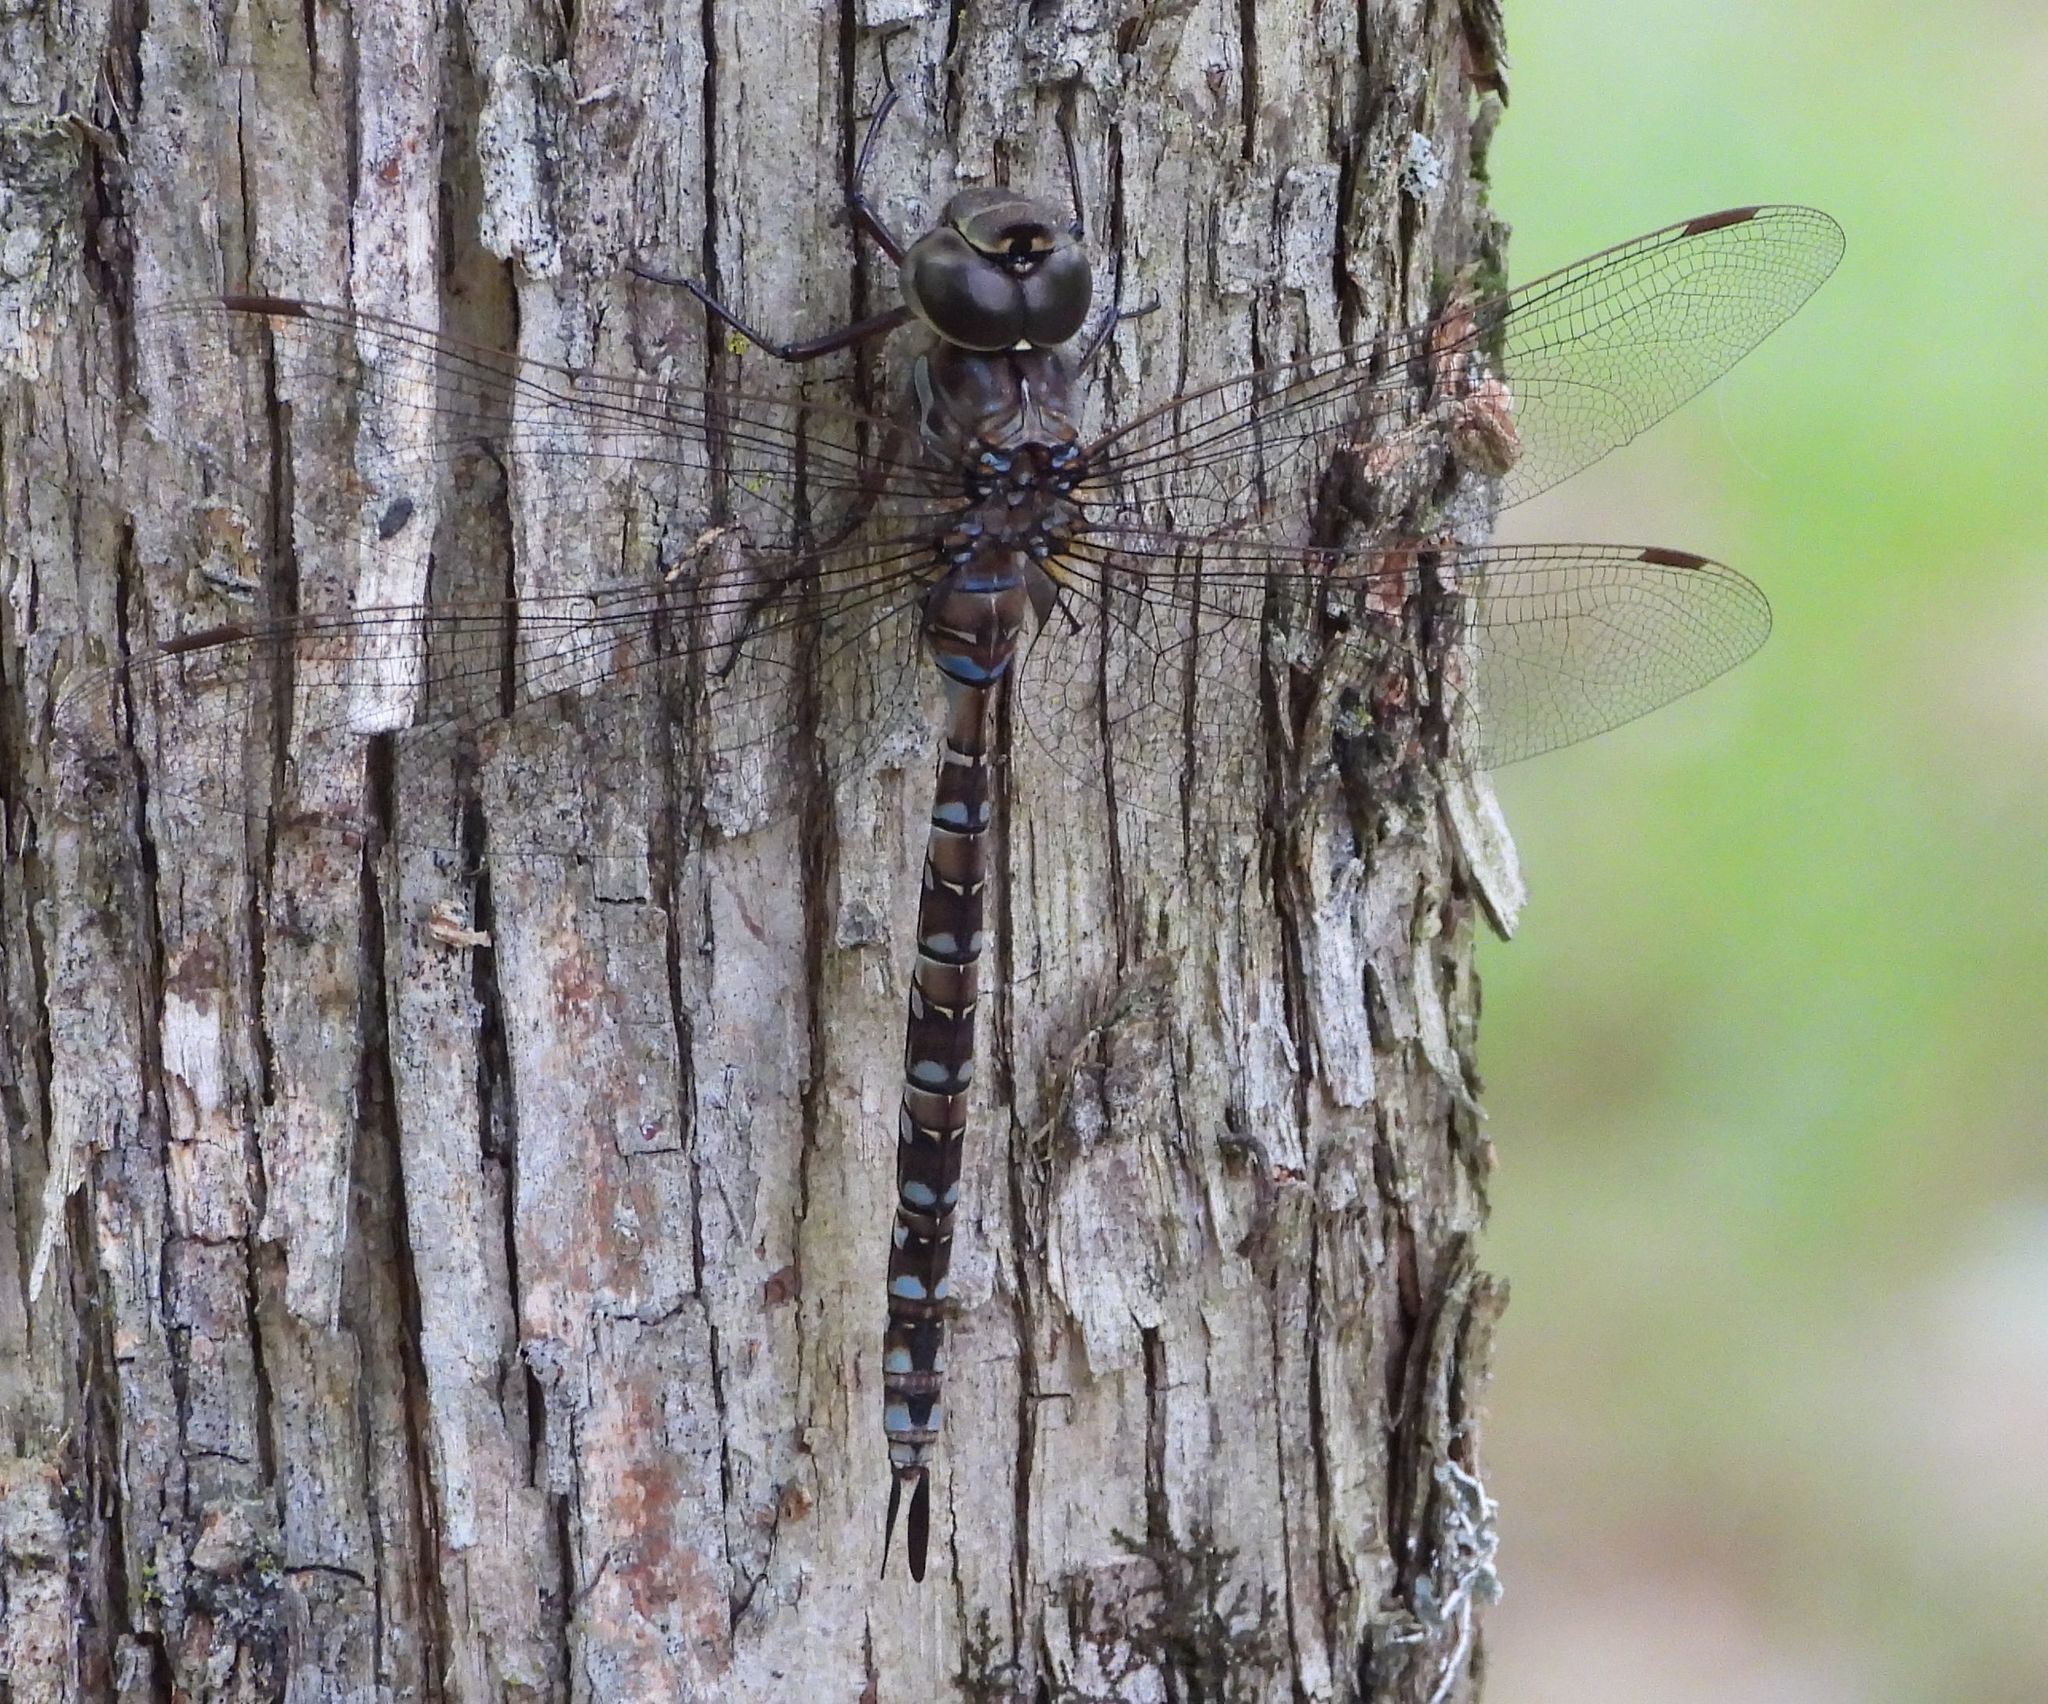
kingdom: Animalia
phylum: Arthropoda
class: Insecta
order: Odonata
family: Aeshnidae
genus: Aeshna
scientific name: Aeshna canadensis
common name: Canada darner
